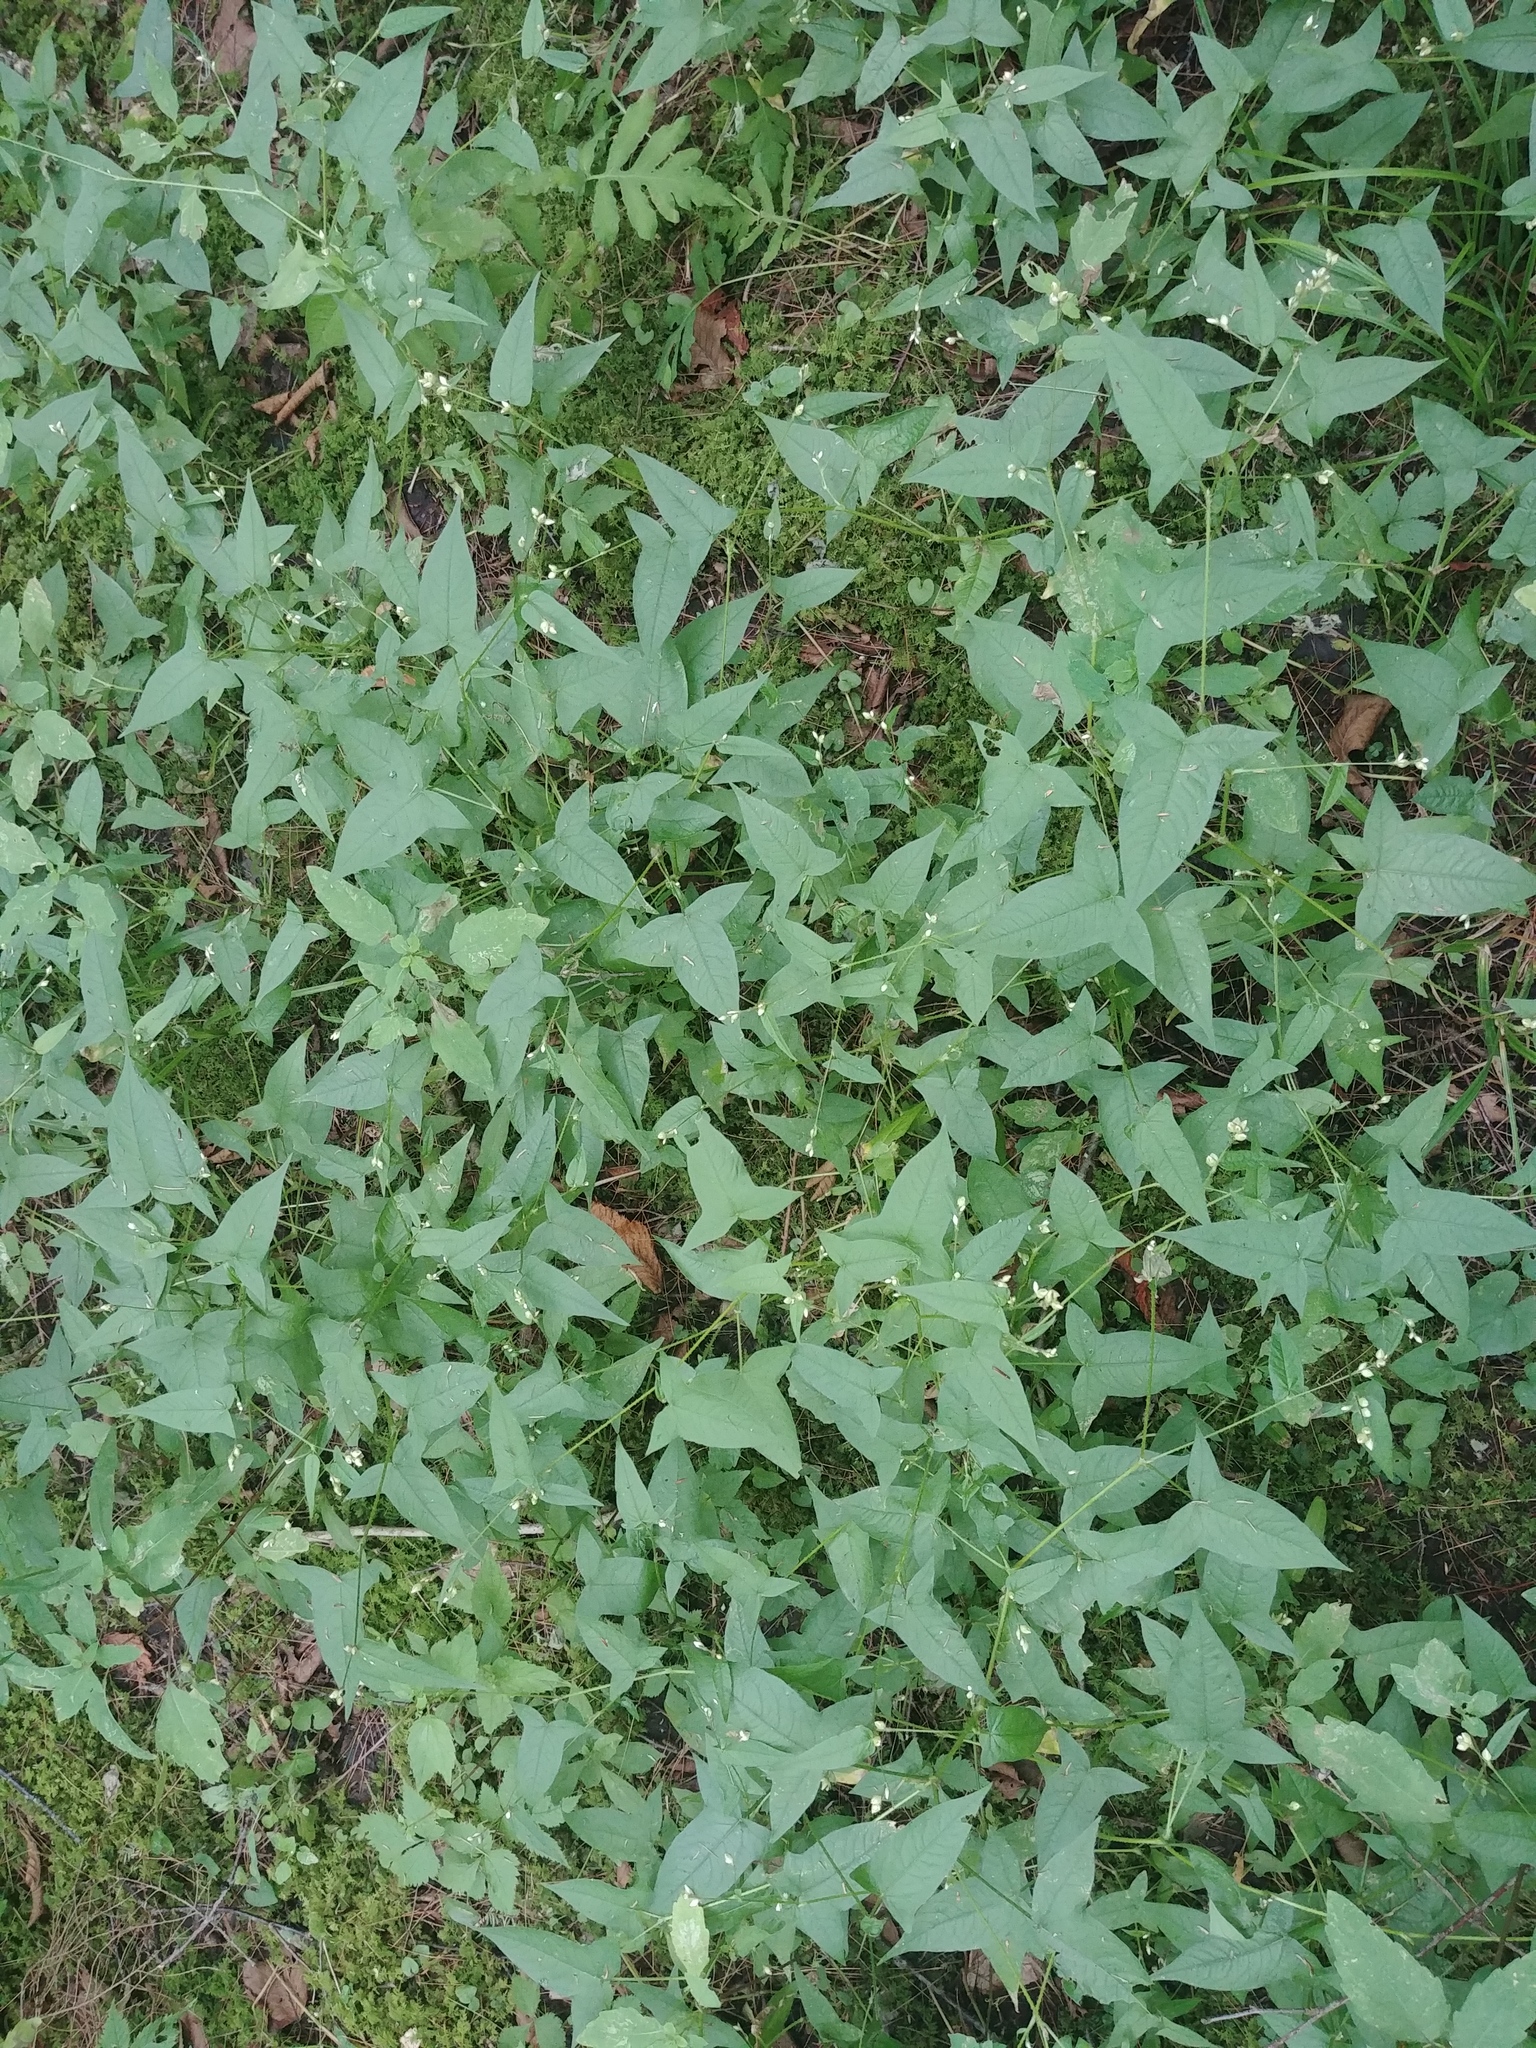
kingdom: Plantae
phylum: Tracheophyta
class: Magnoliopsida
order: Caryophyllales
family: Polygonaceae
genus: Persicaria
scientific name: Persicaria arifolia
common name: Halberd-leaved tear-thumb
